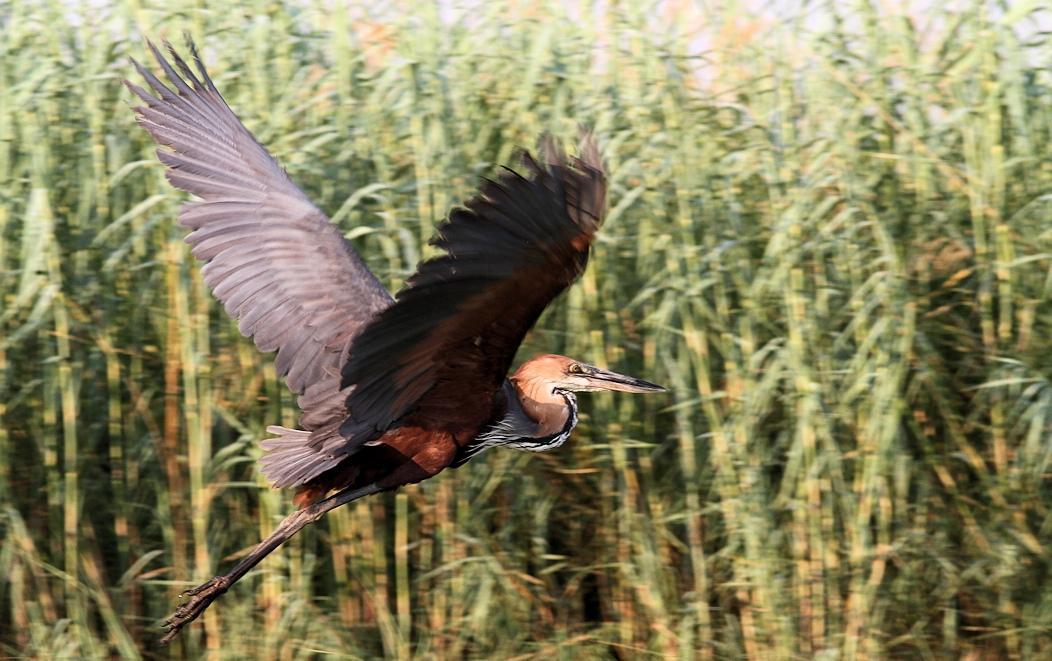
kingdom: Animalia
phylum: Chordata
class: Aves
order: Pelecaniformes
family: Ardeidae
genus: Ardea
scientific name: Ardea goliath
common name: Goliath heron
